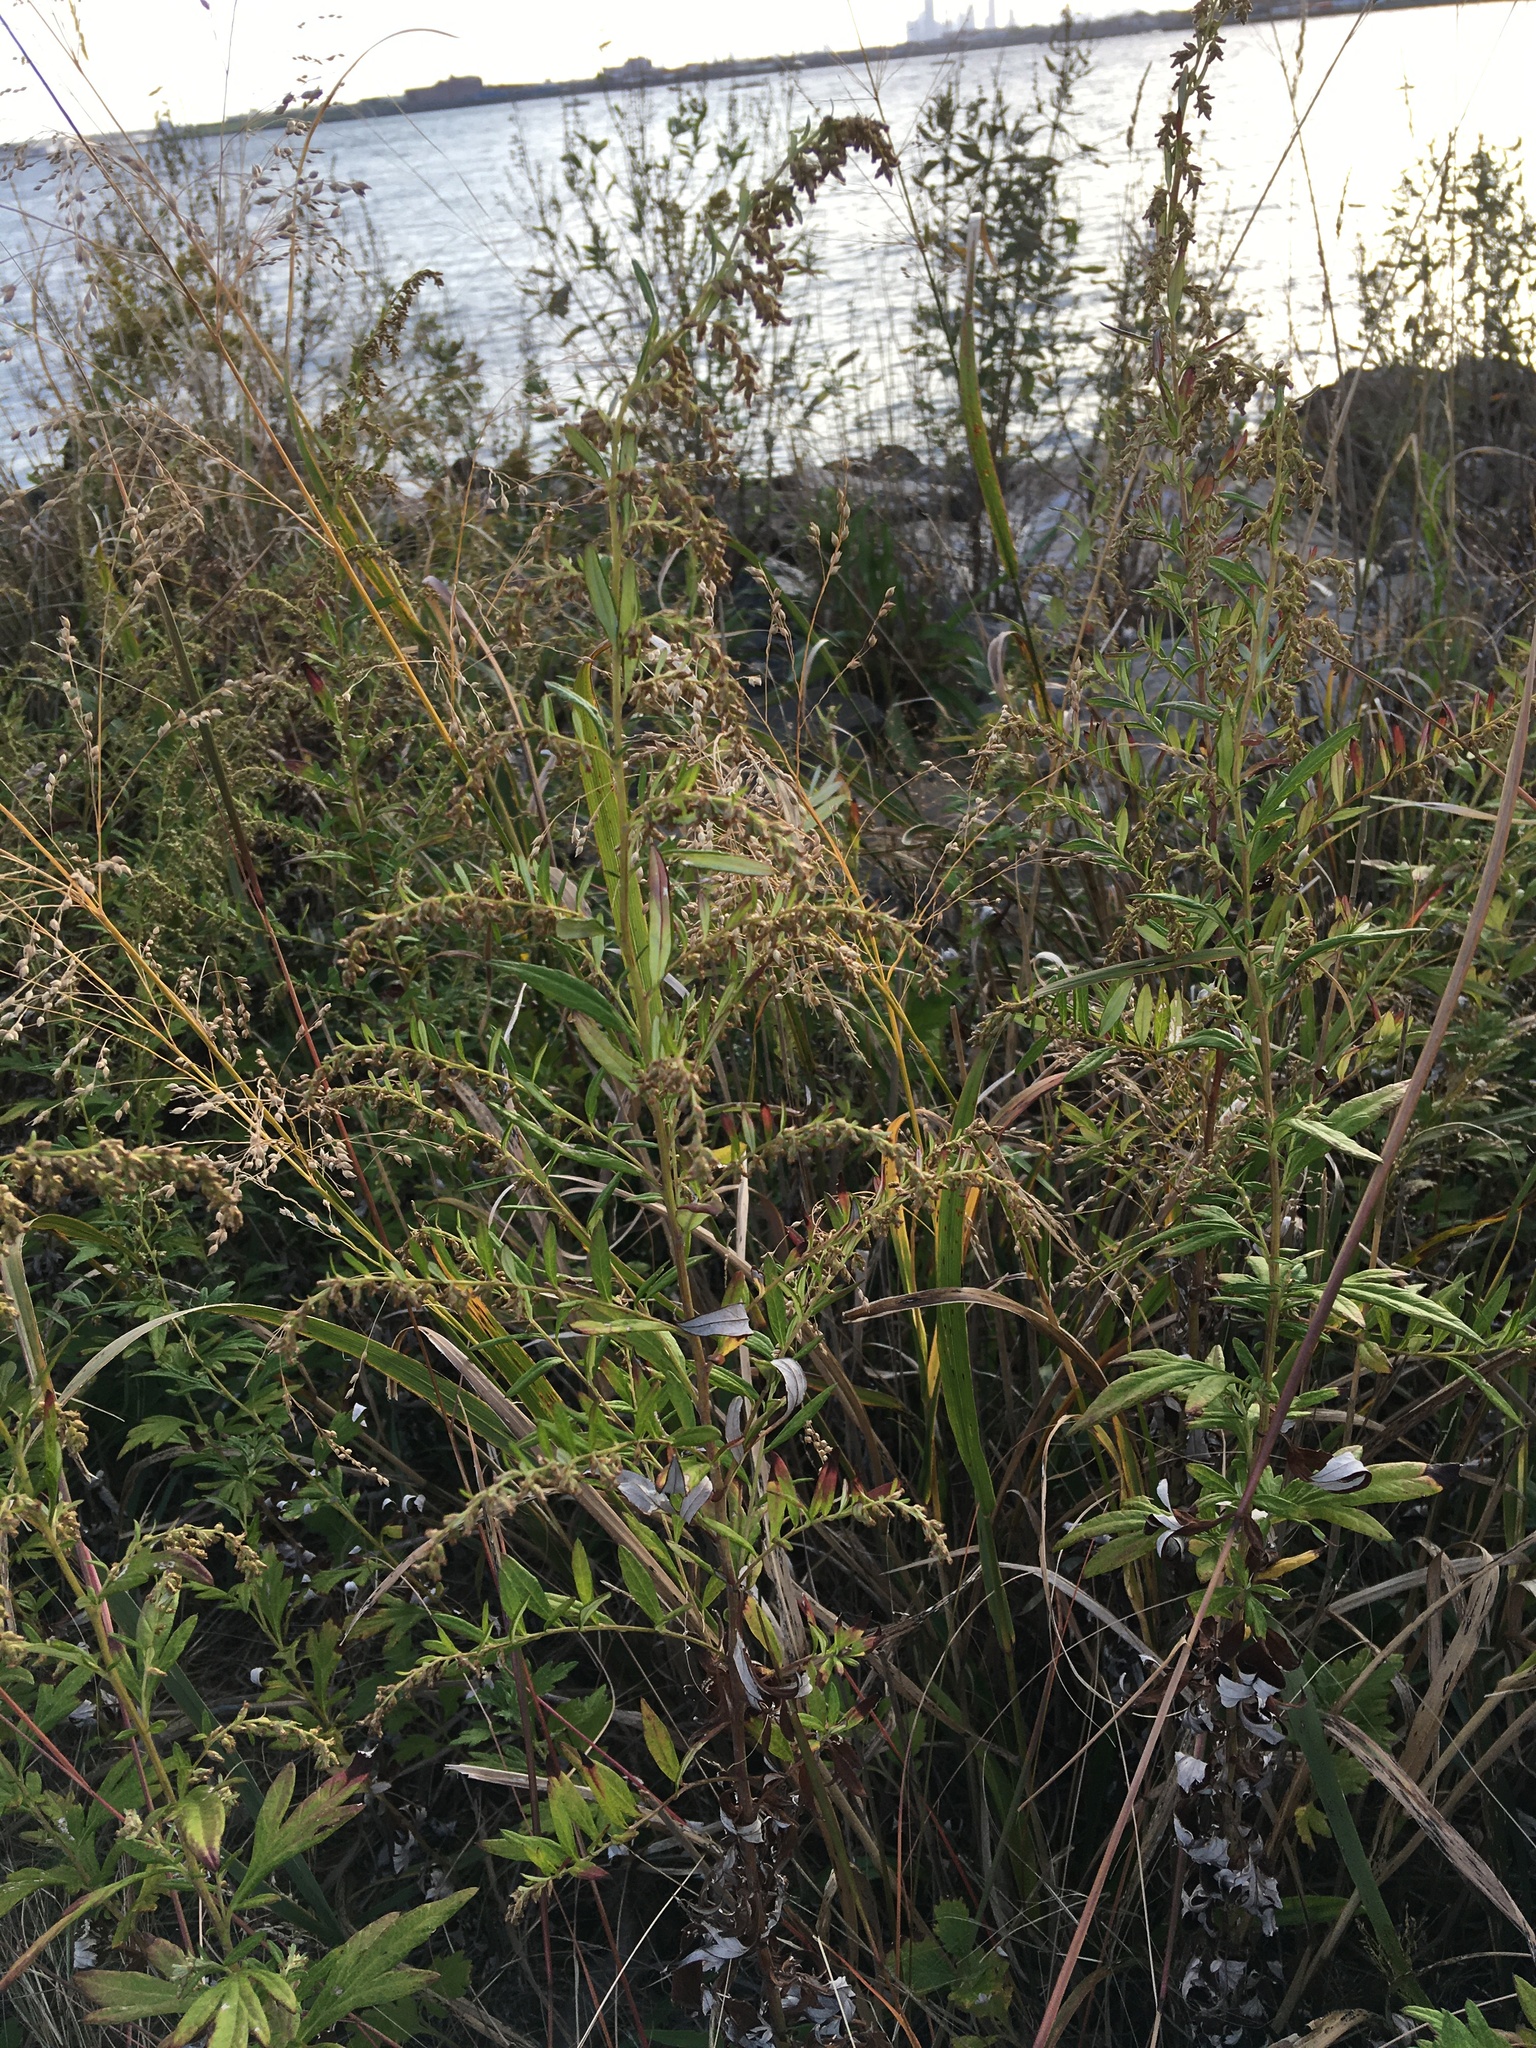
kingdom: Plantae
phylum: Tracheophyta
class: Magnoliopsida
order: Asterales
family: Asteraceae
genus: Artemisia
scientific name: Artemisia vulgaris
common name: Mugwort
